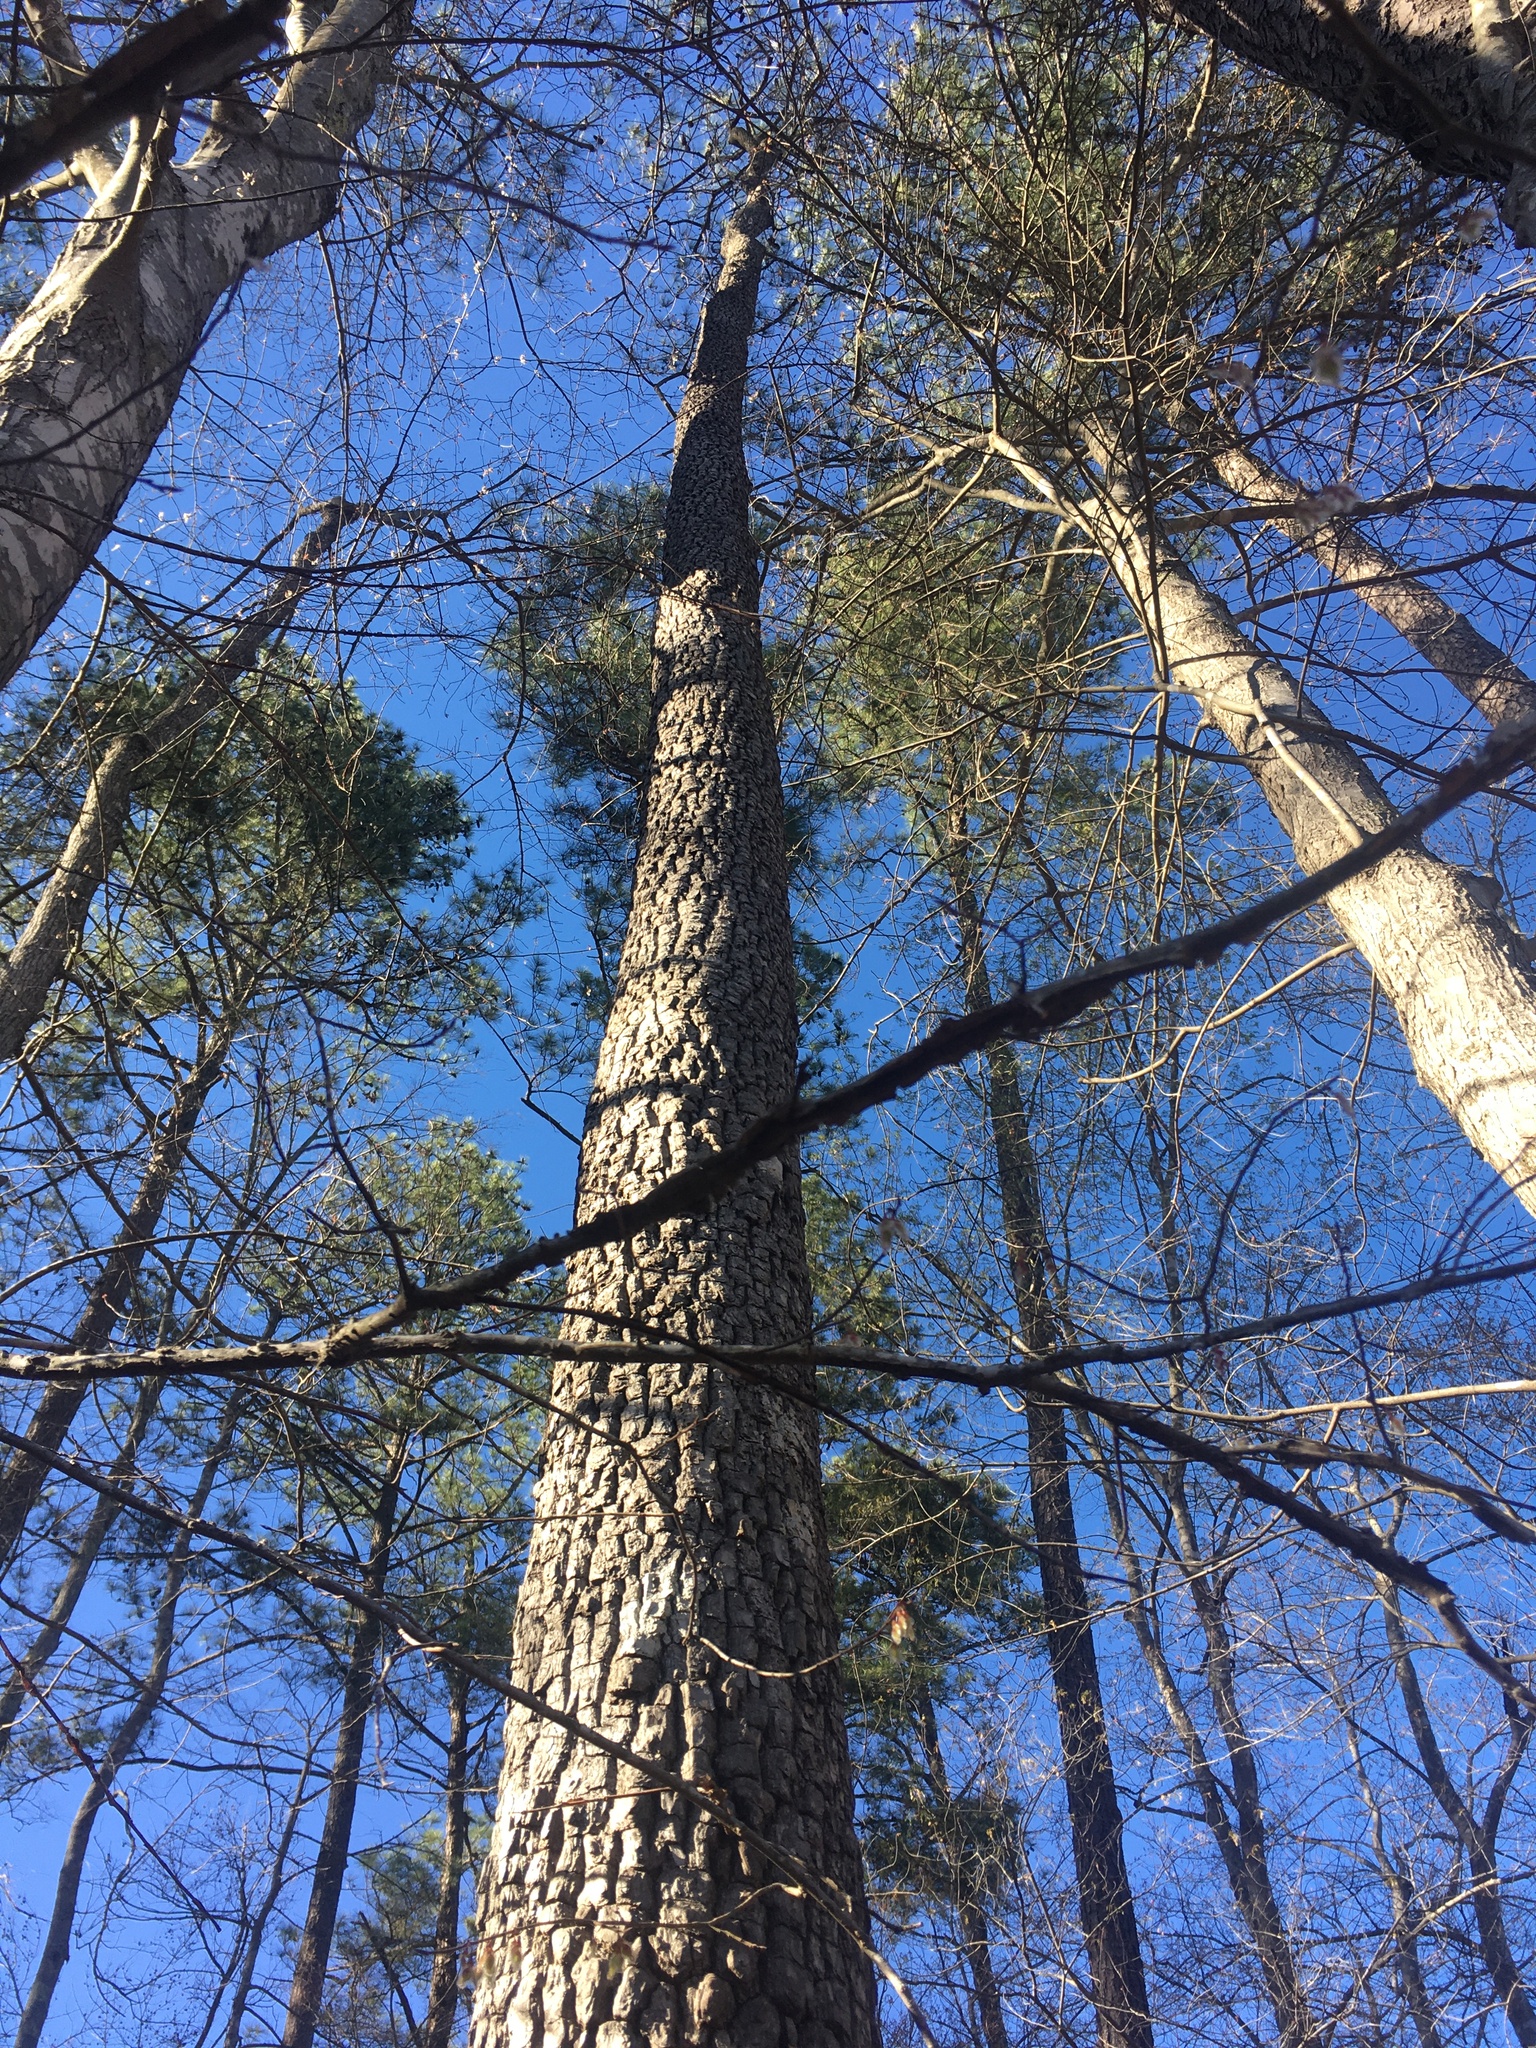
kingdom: Plantae
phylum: Tracheophyta
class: Magnoliopsida
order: Ericales
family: Ebenaceae
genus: Diospyros
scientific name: Diospyros virginiana
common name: Persimmon
